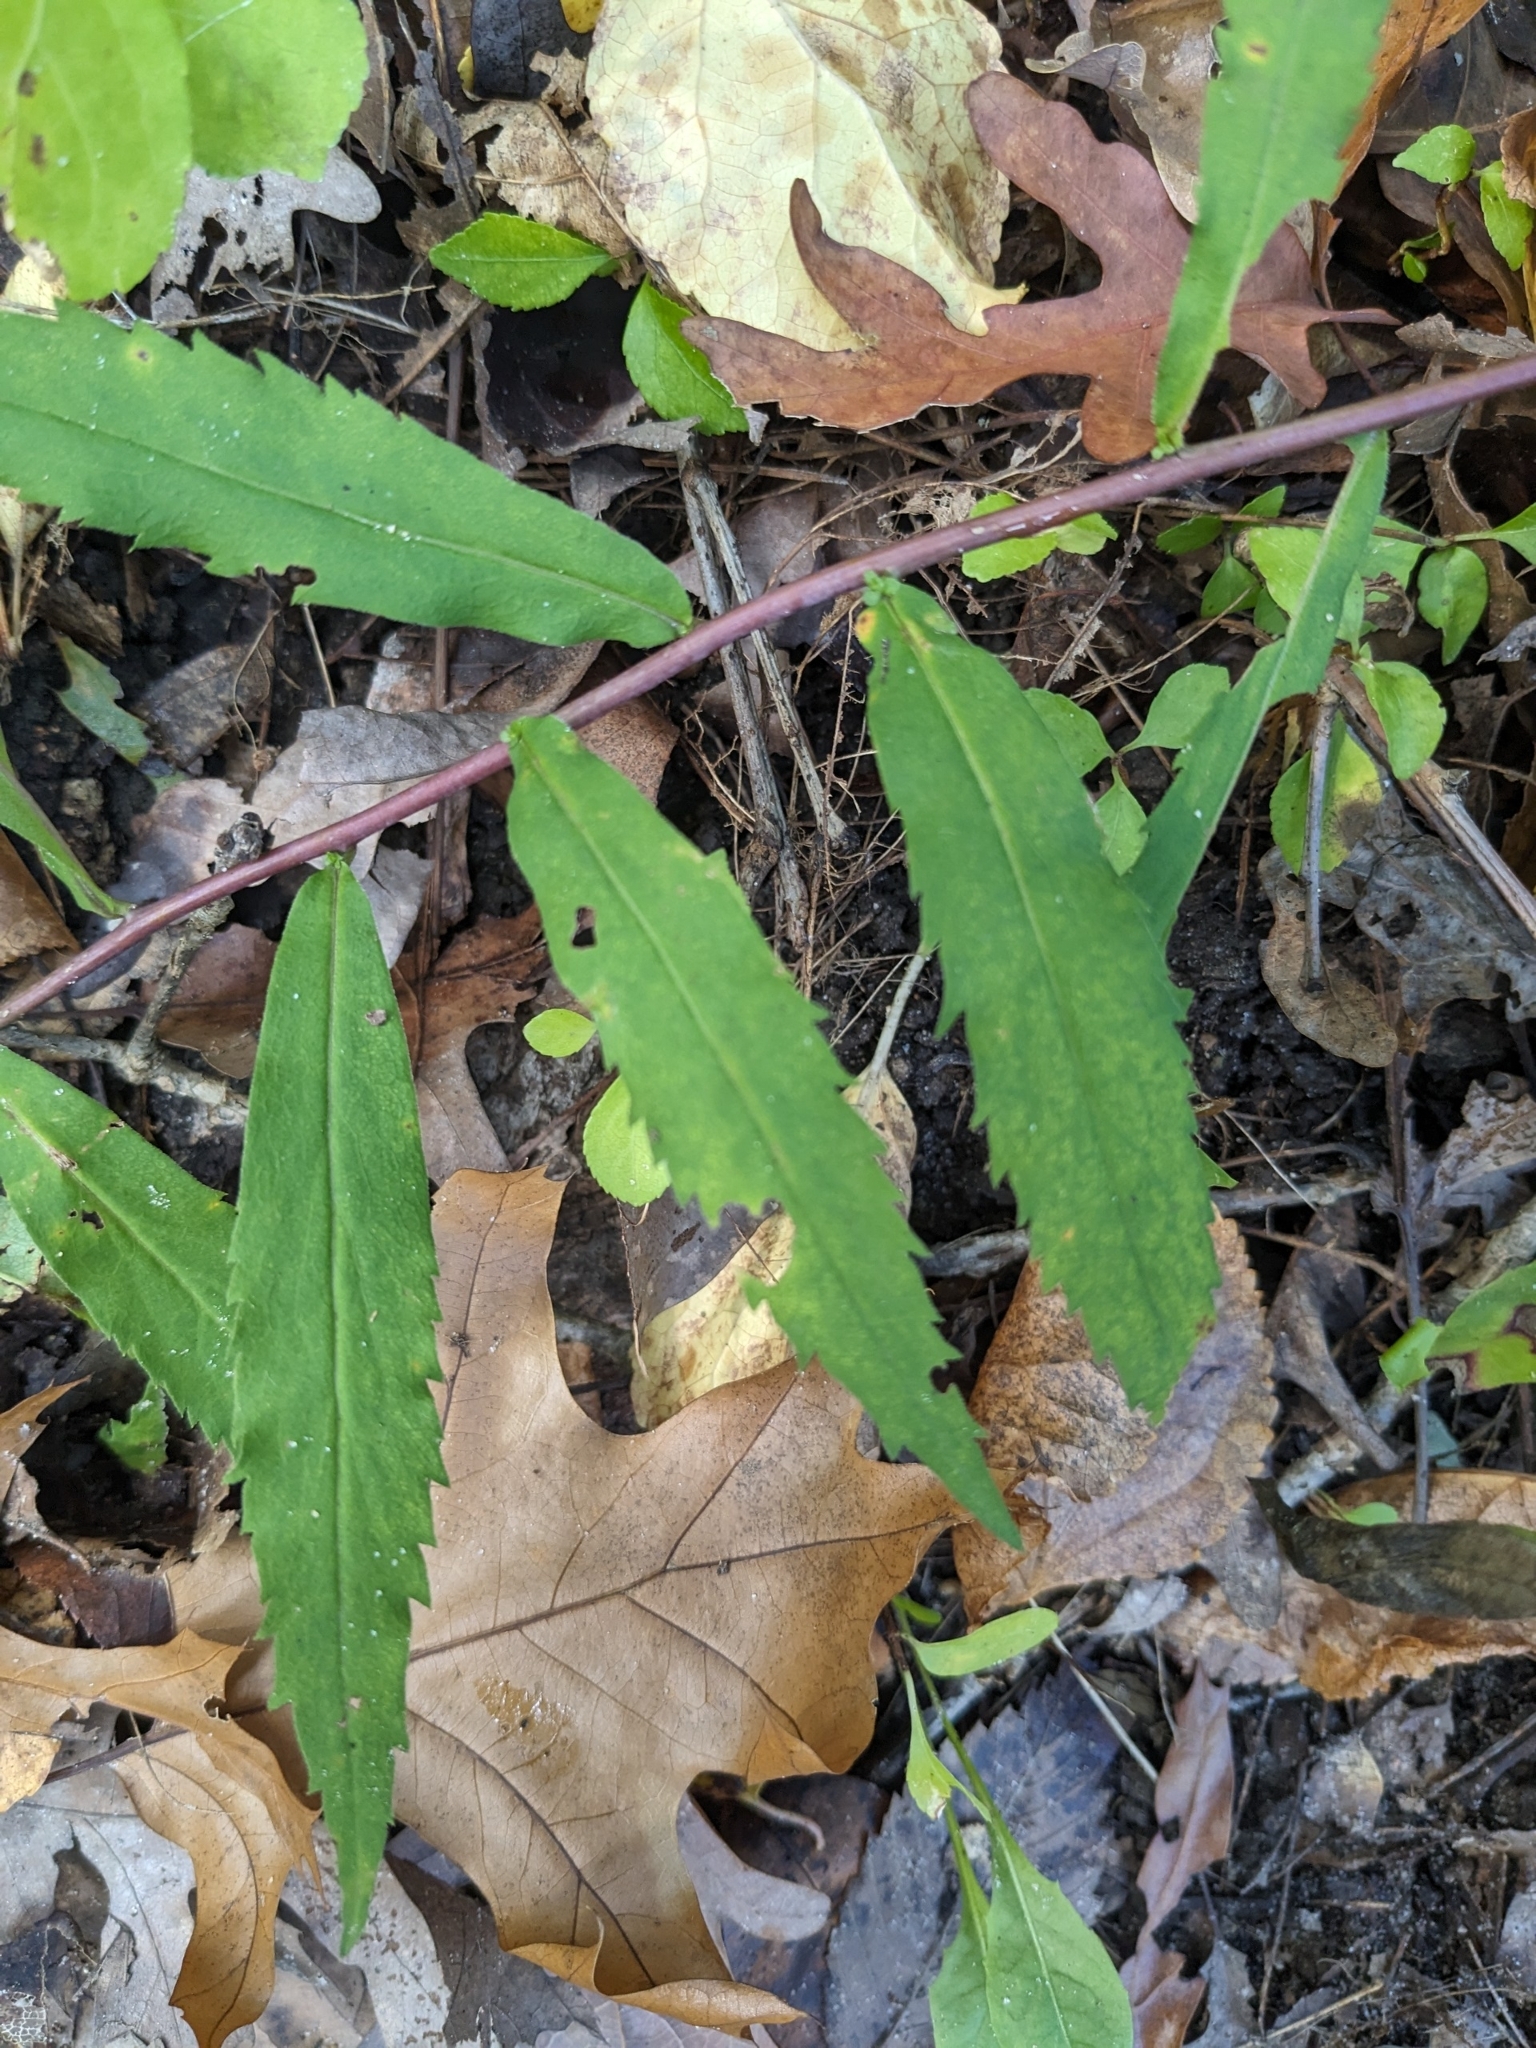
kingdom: Plantae
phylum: Tracheophyta
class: Magnoliopsida
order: Asterales
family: Asteraceae
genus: Solidago
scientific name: Solidago caesia
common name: Woodland goldenrod
